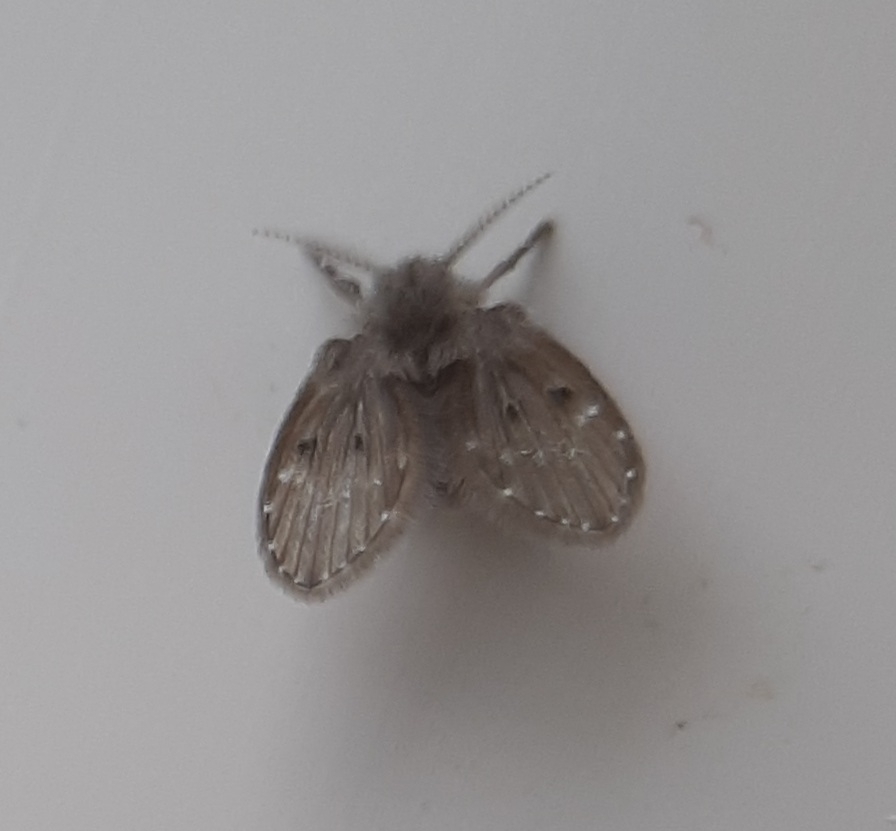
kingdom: Animalia
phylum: Arthropoda
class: Insecta
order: Diptera
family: Psychodidae
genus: Clogmia
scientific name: Clogmia albipunctatus
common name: White-spotted moth fly
